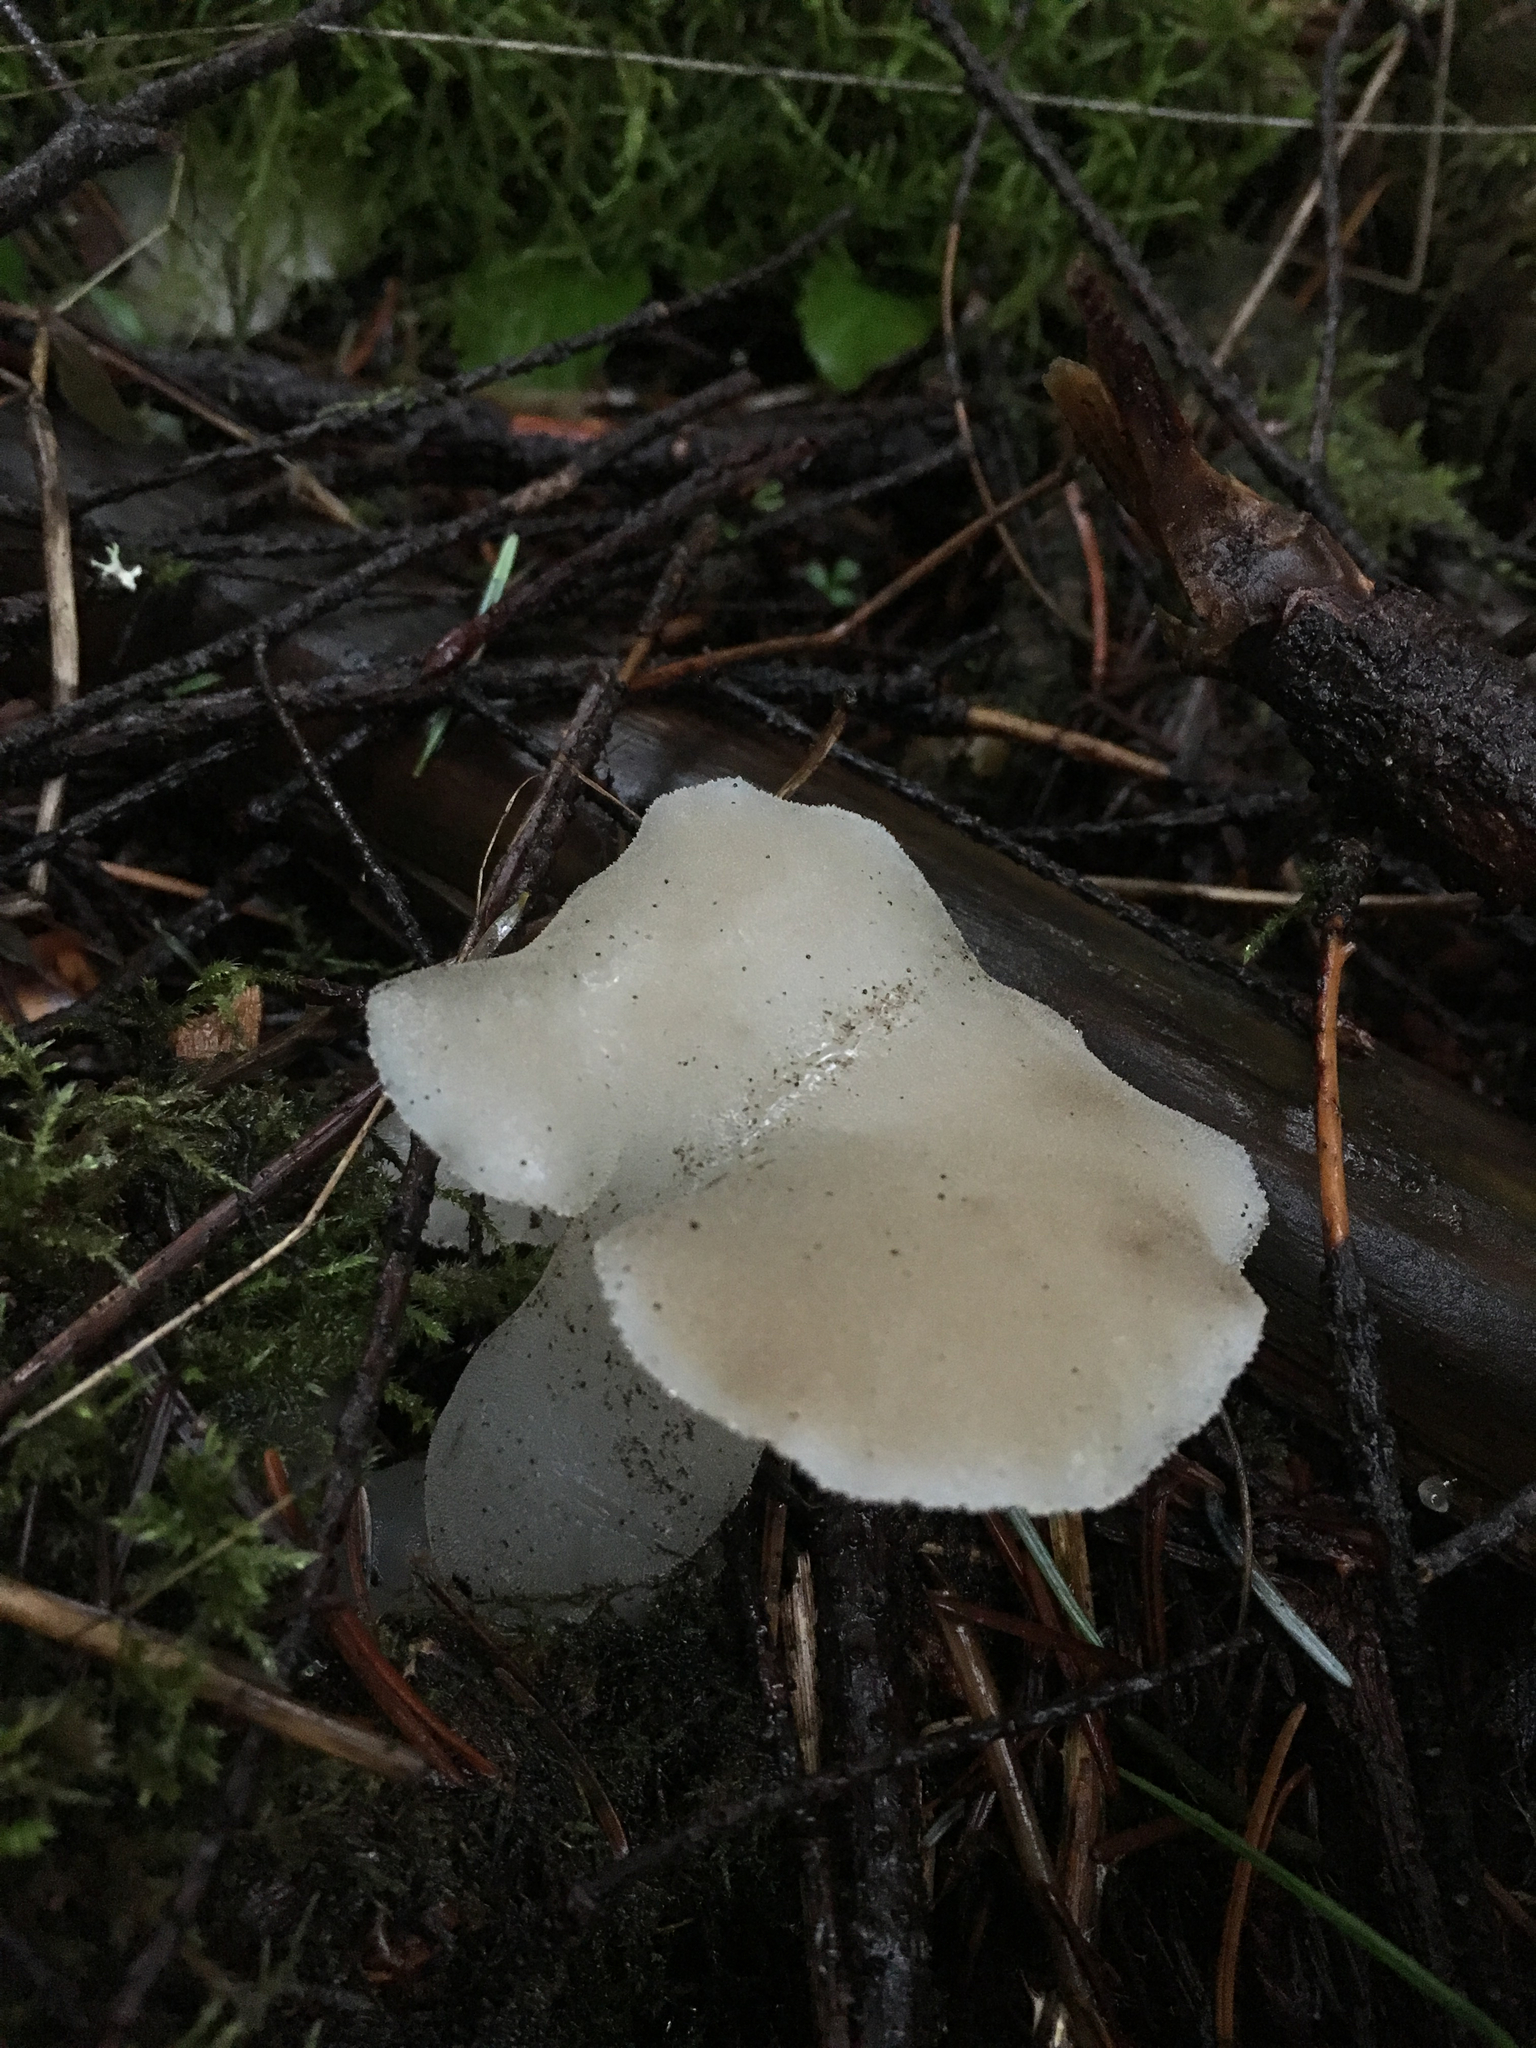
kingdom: Fungi
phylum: Basidiomycota
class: Agaricomycetes
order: Auriculariales
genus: Pseudohydnum
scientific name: Pseudohydnum gelatinosum
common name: Jelly tongue
